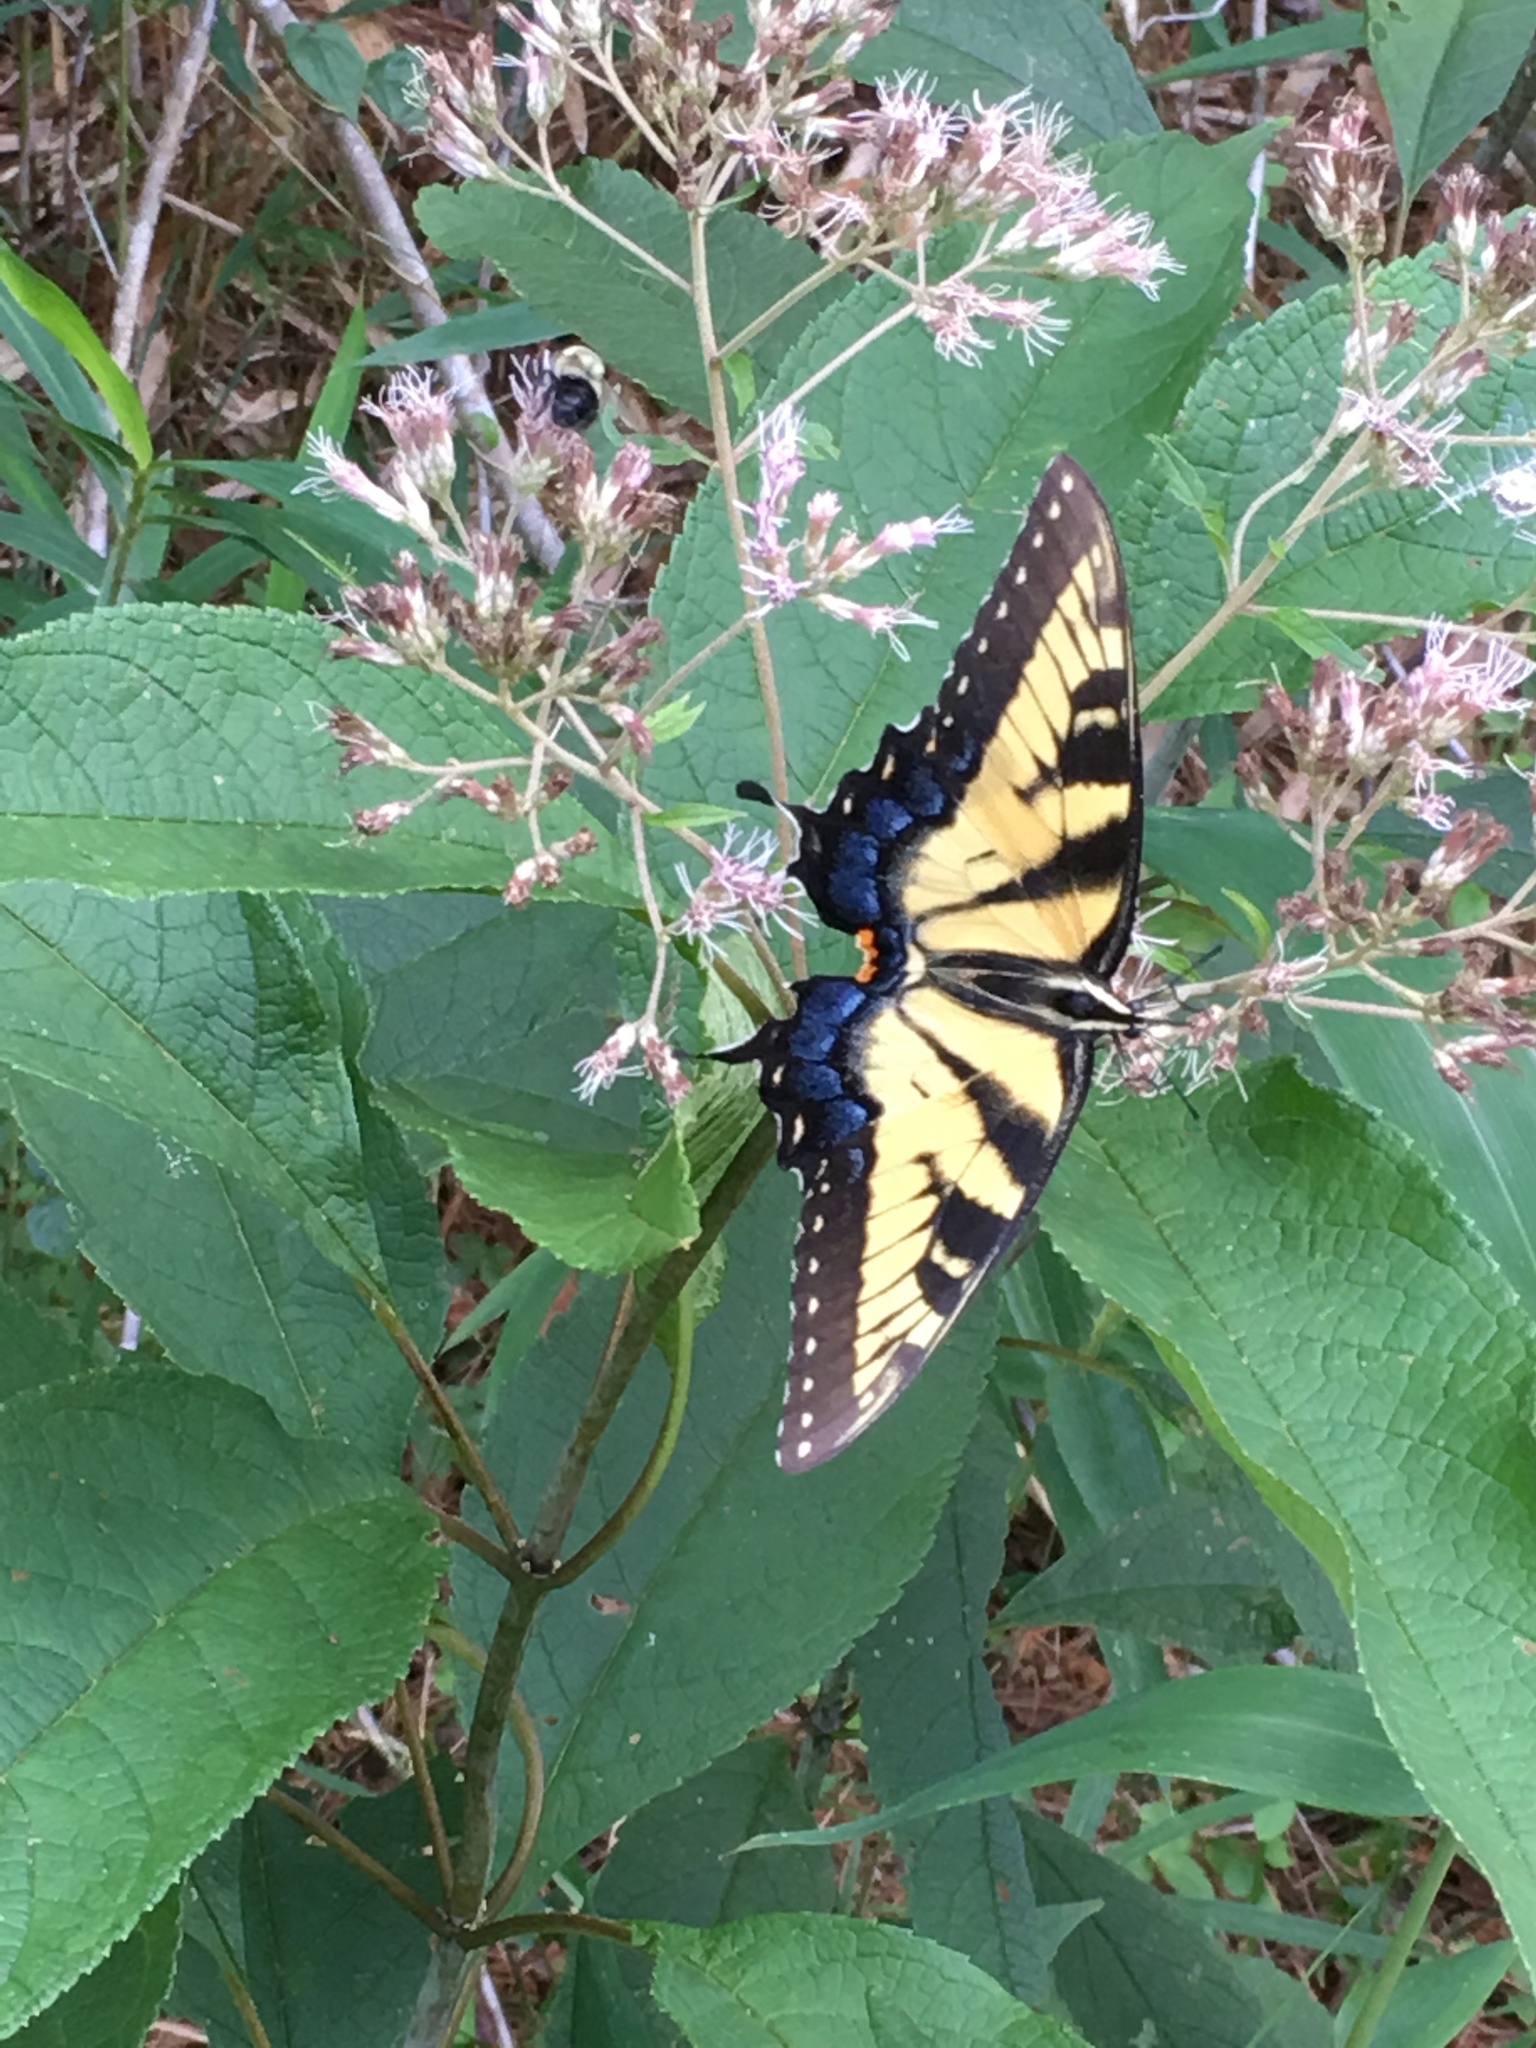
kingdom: Animalia
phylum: Arthropoda
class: Insecta
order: Lepidoptera
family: Papilionidae
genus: Papilio
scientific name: Papilio glaucus
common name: Tiger swallowtail
